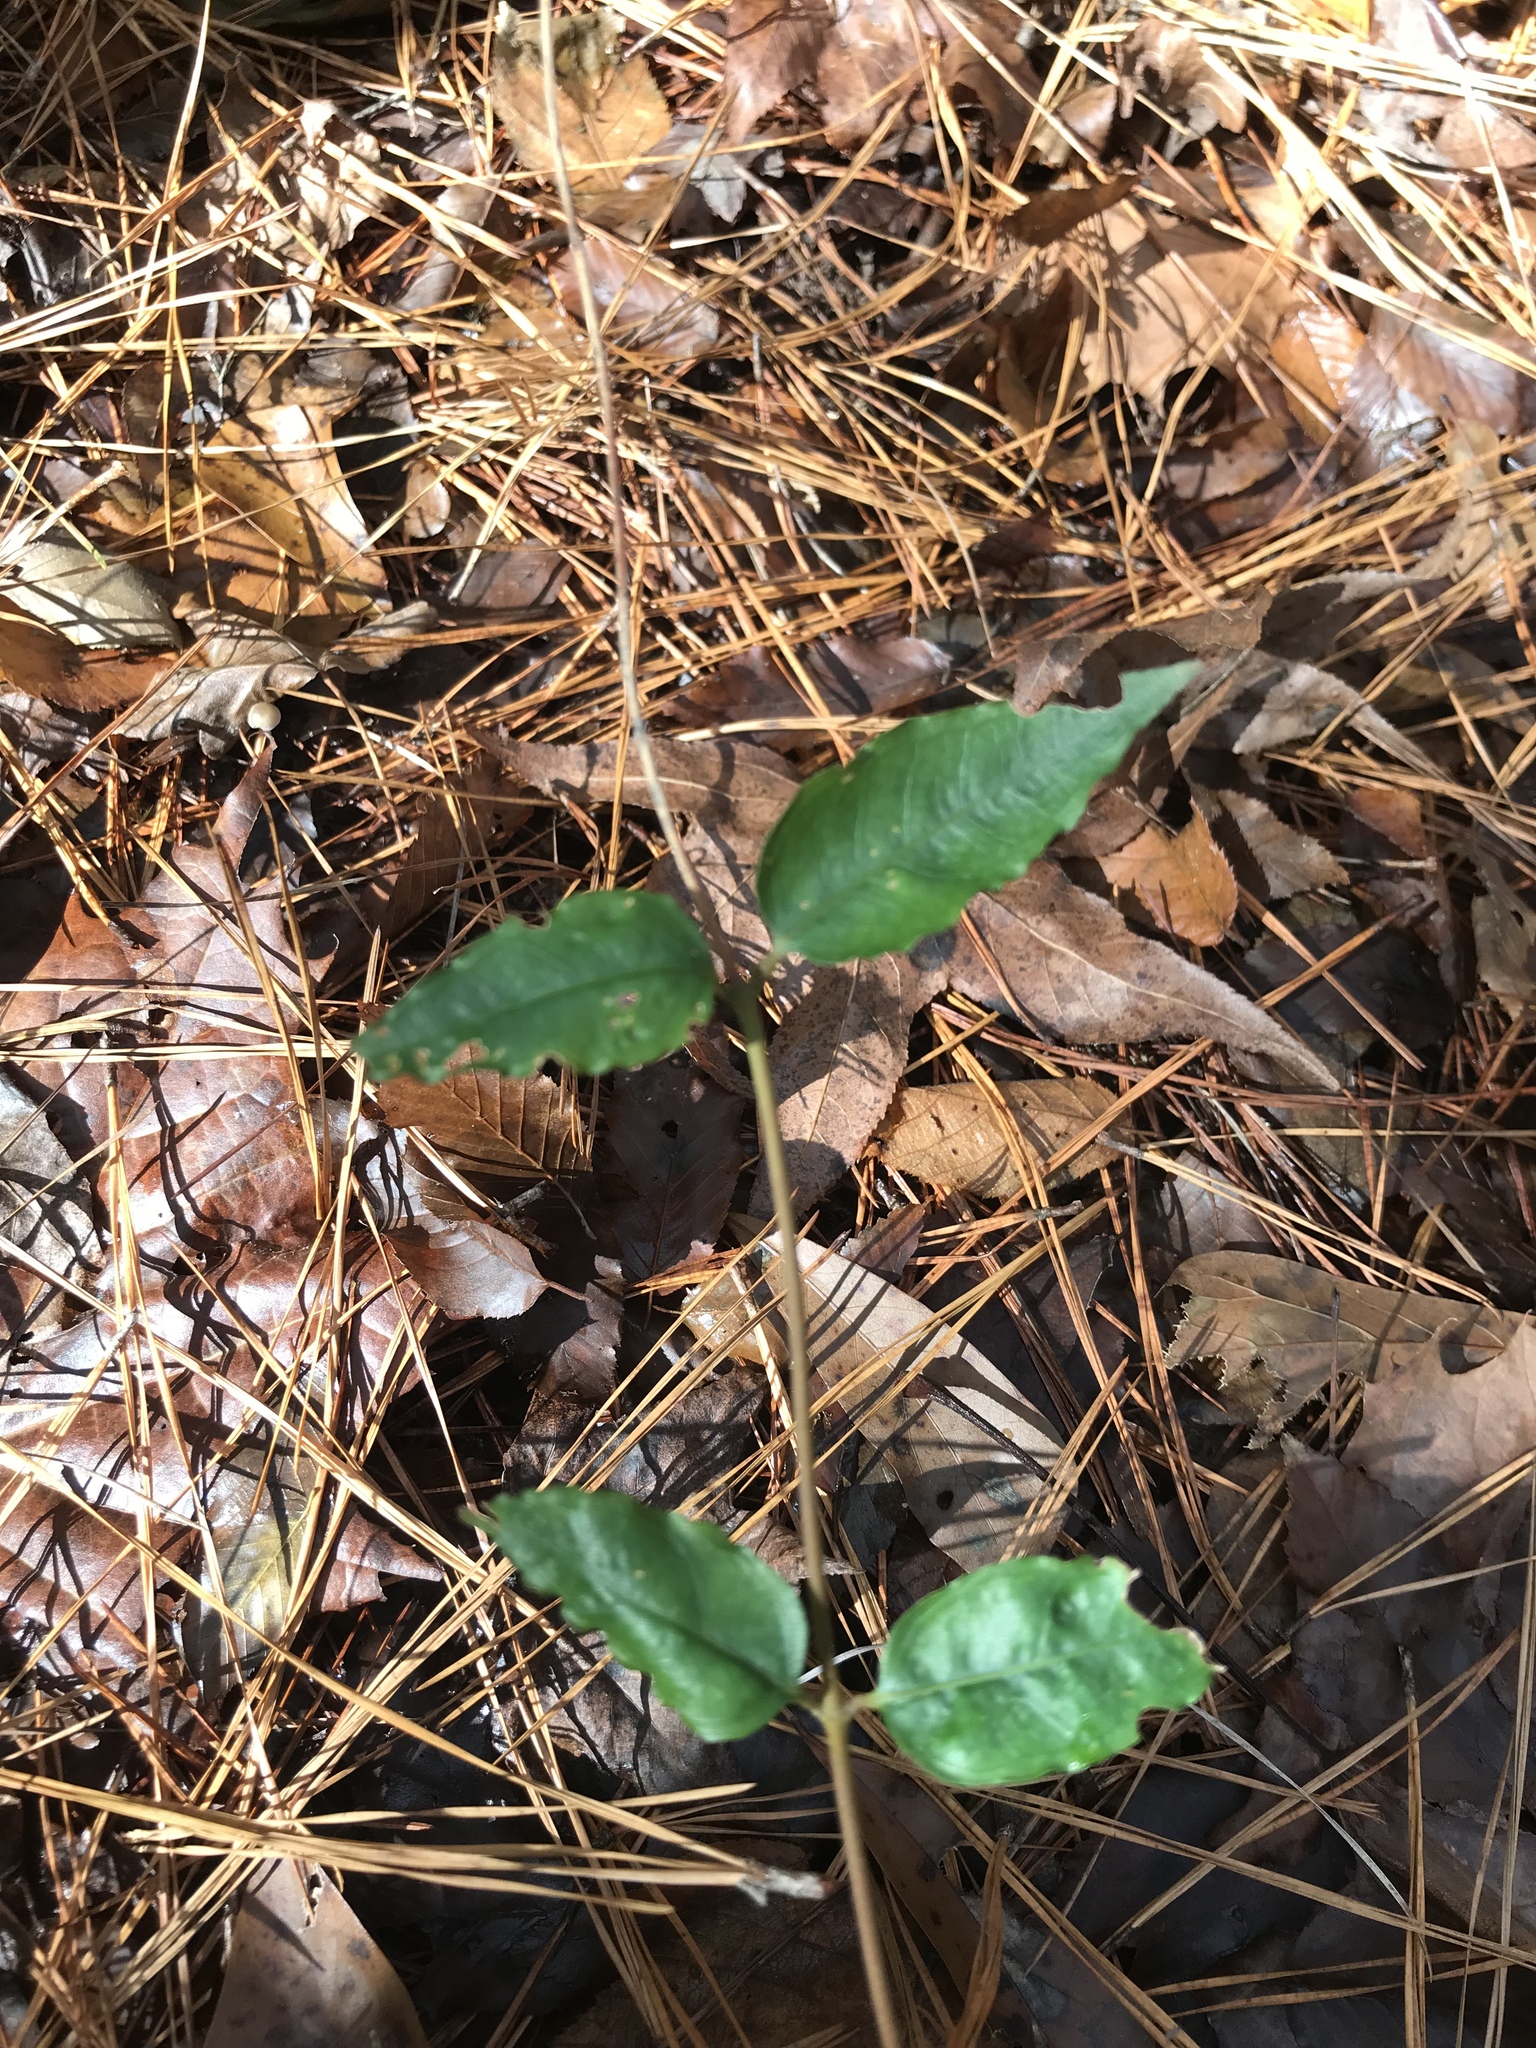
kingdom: Plantae
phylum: Tracheophyta
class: Magnoliopsida
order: Lamiales
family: Bignoniaceae
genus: Bignonia
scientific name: Bignonia capreolata
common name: Crossvine
